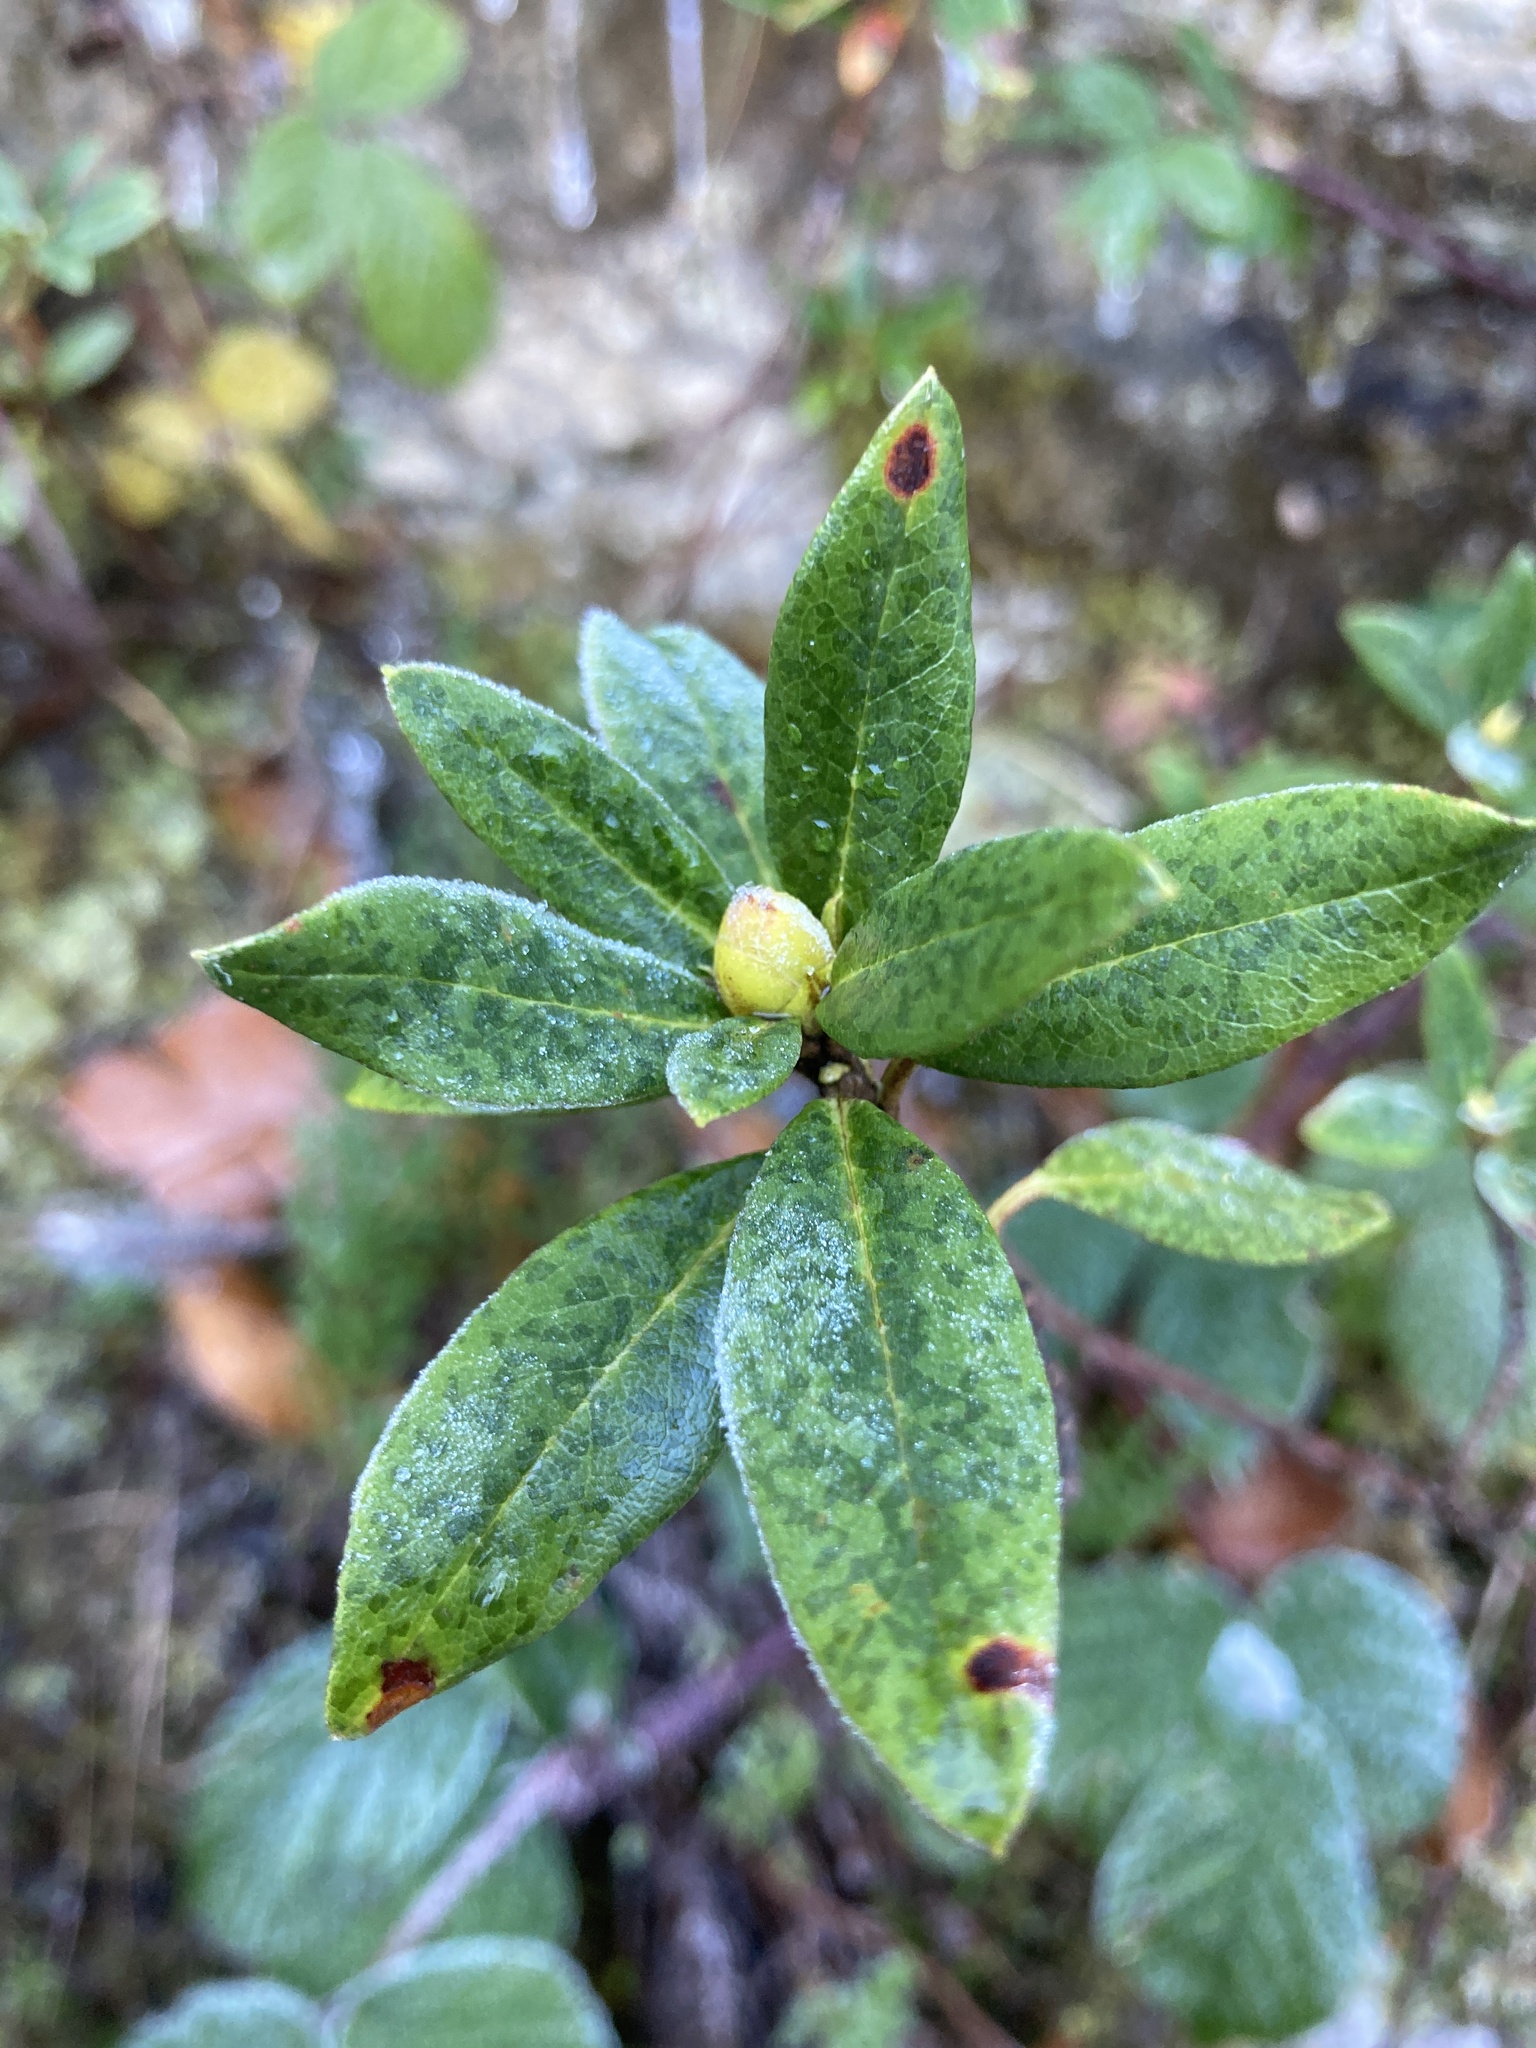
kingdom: Plantae
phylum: Tracheophyta
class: Magnoliopsida
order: Ericales
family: Ericaceae
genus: Rhododendron
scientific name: Rhododendron ferrugineum
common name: Alpenrose
